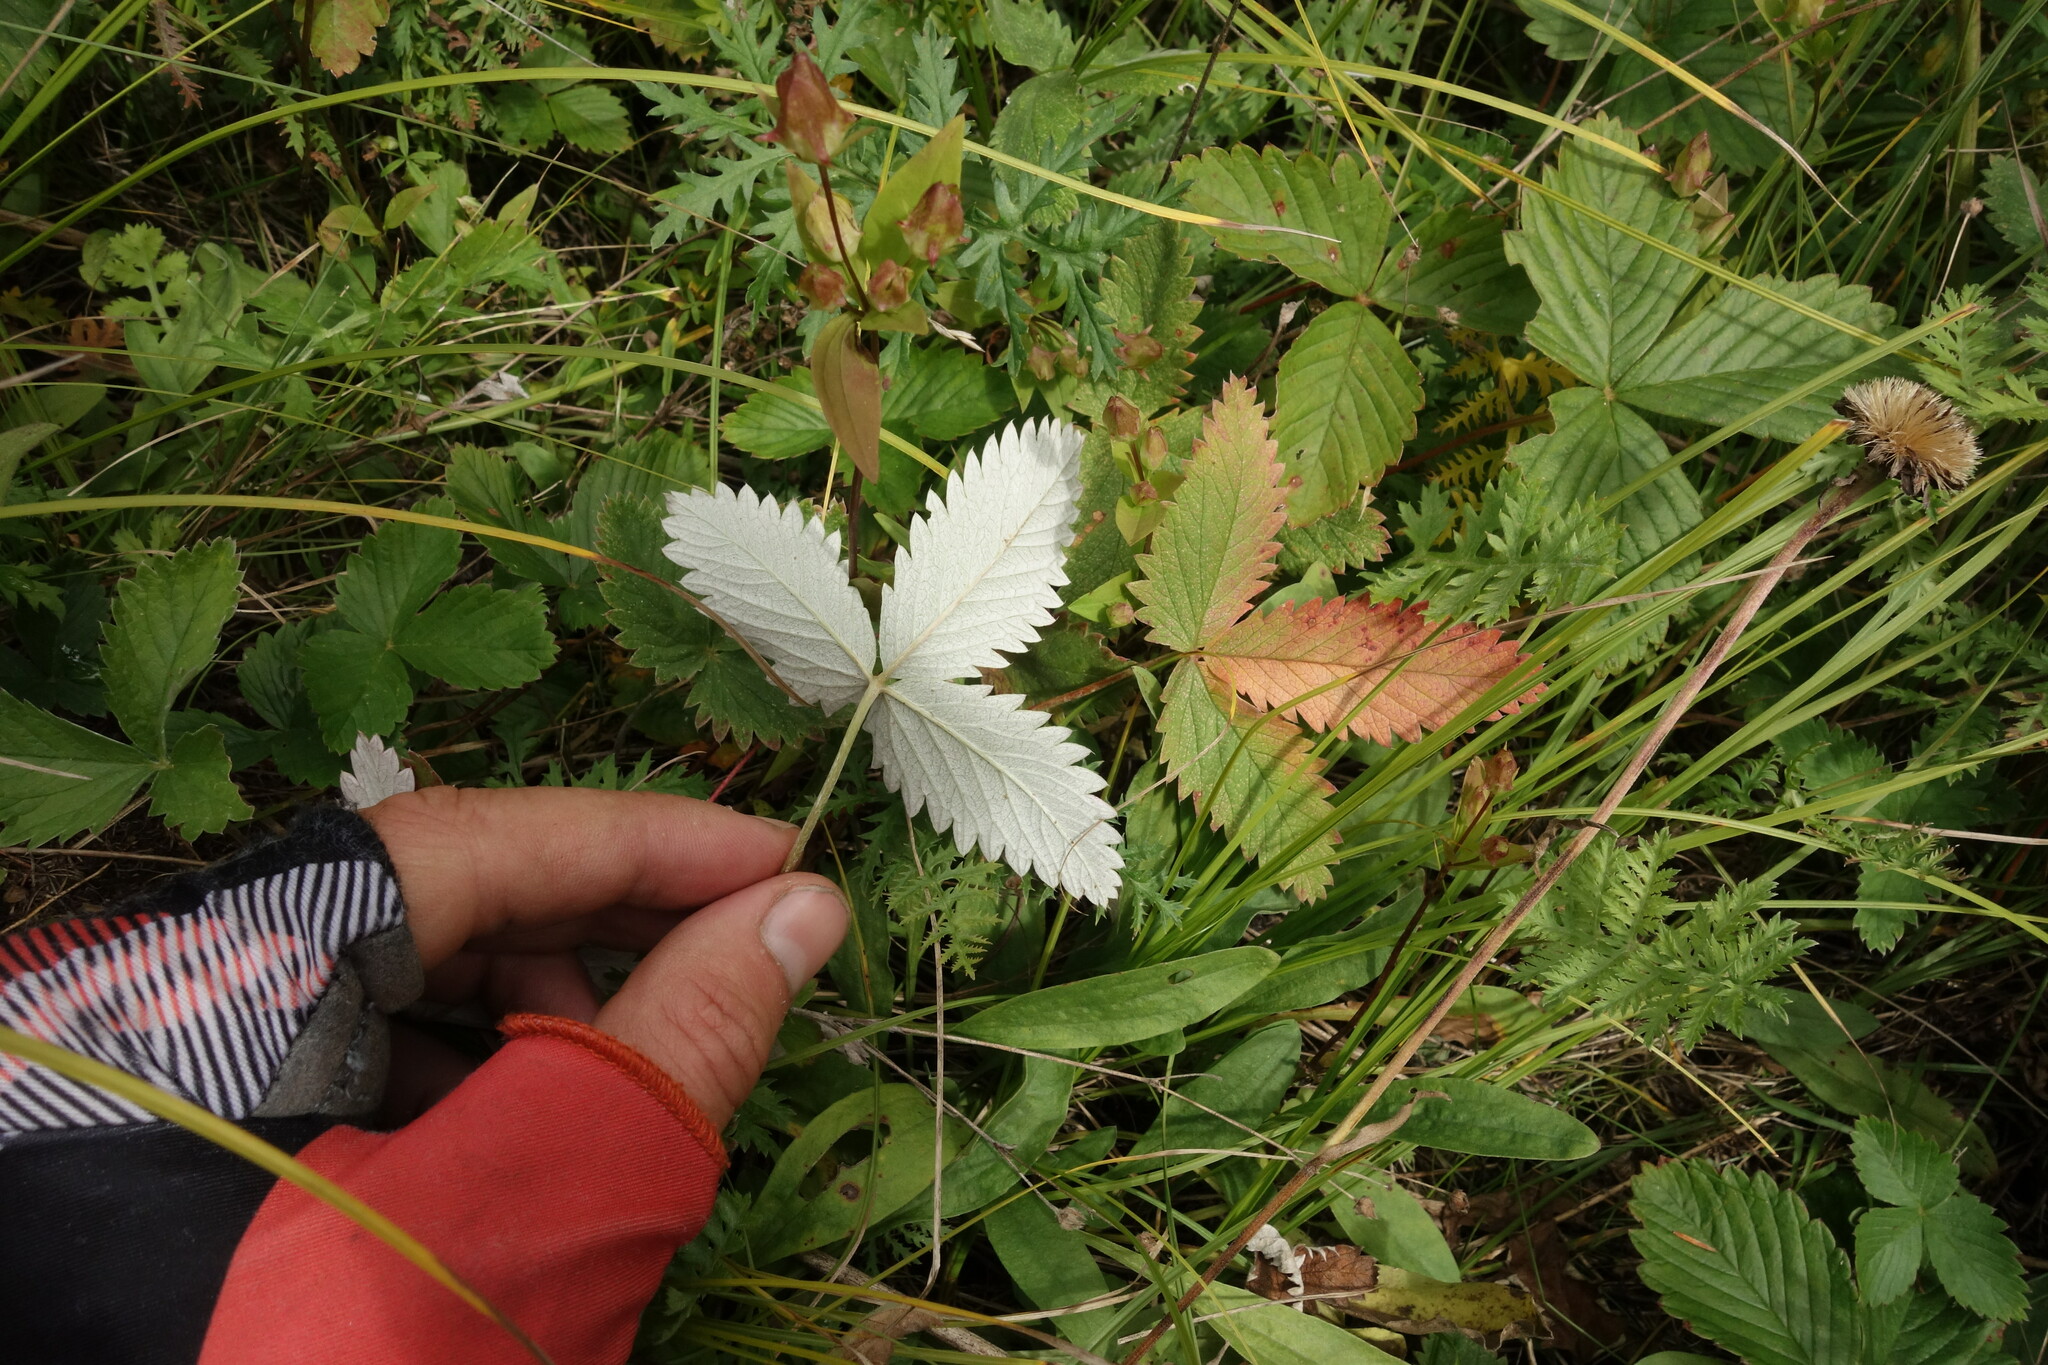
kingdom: Plantae
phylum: Tracheophyta
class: Magnoliopsida
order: Rosales
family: Rosaceae
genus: Potentilla
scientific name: Potentilla crebridens
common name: Congested cinquefoil
